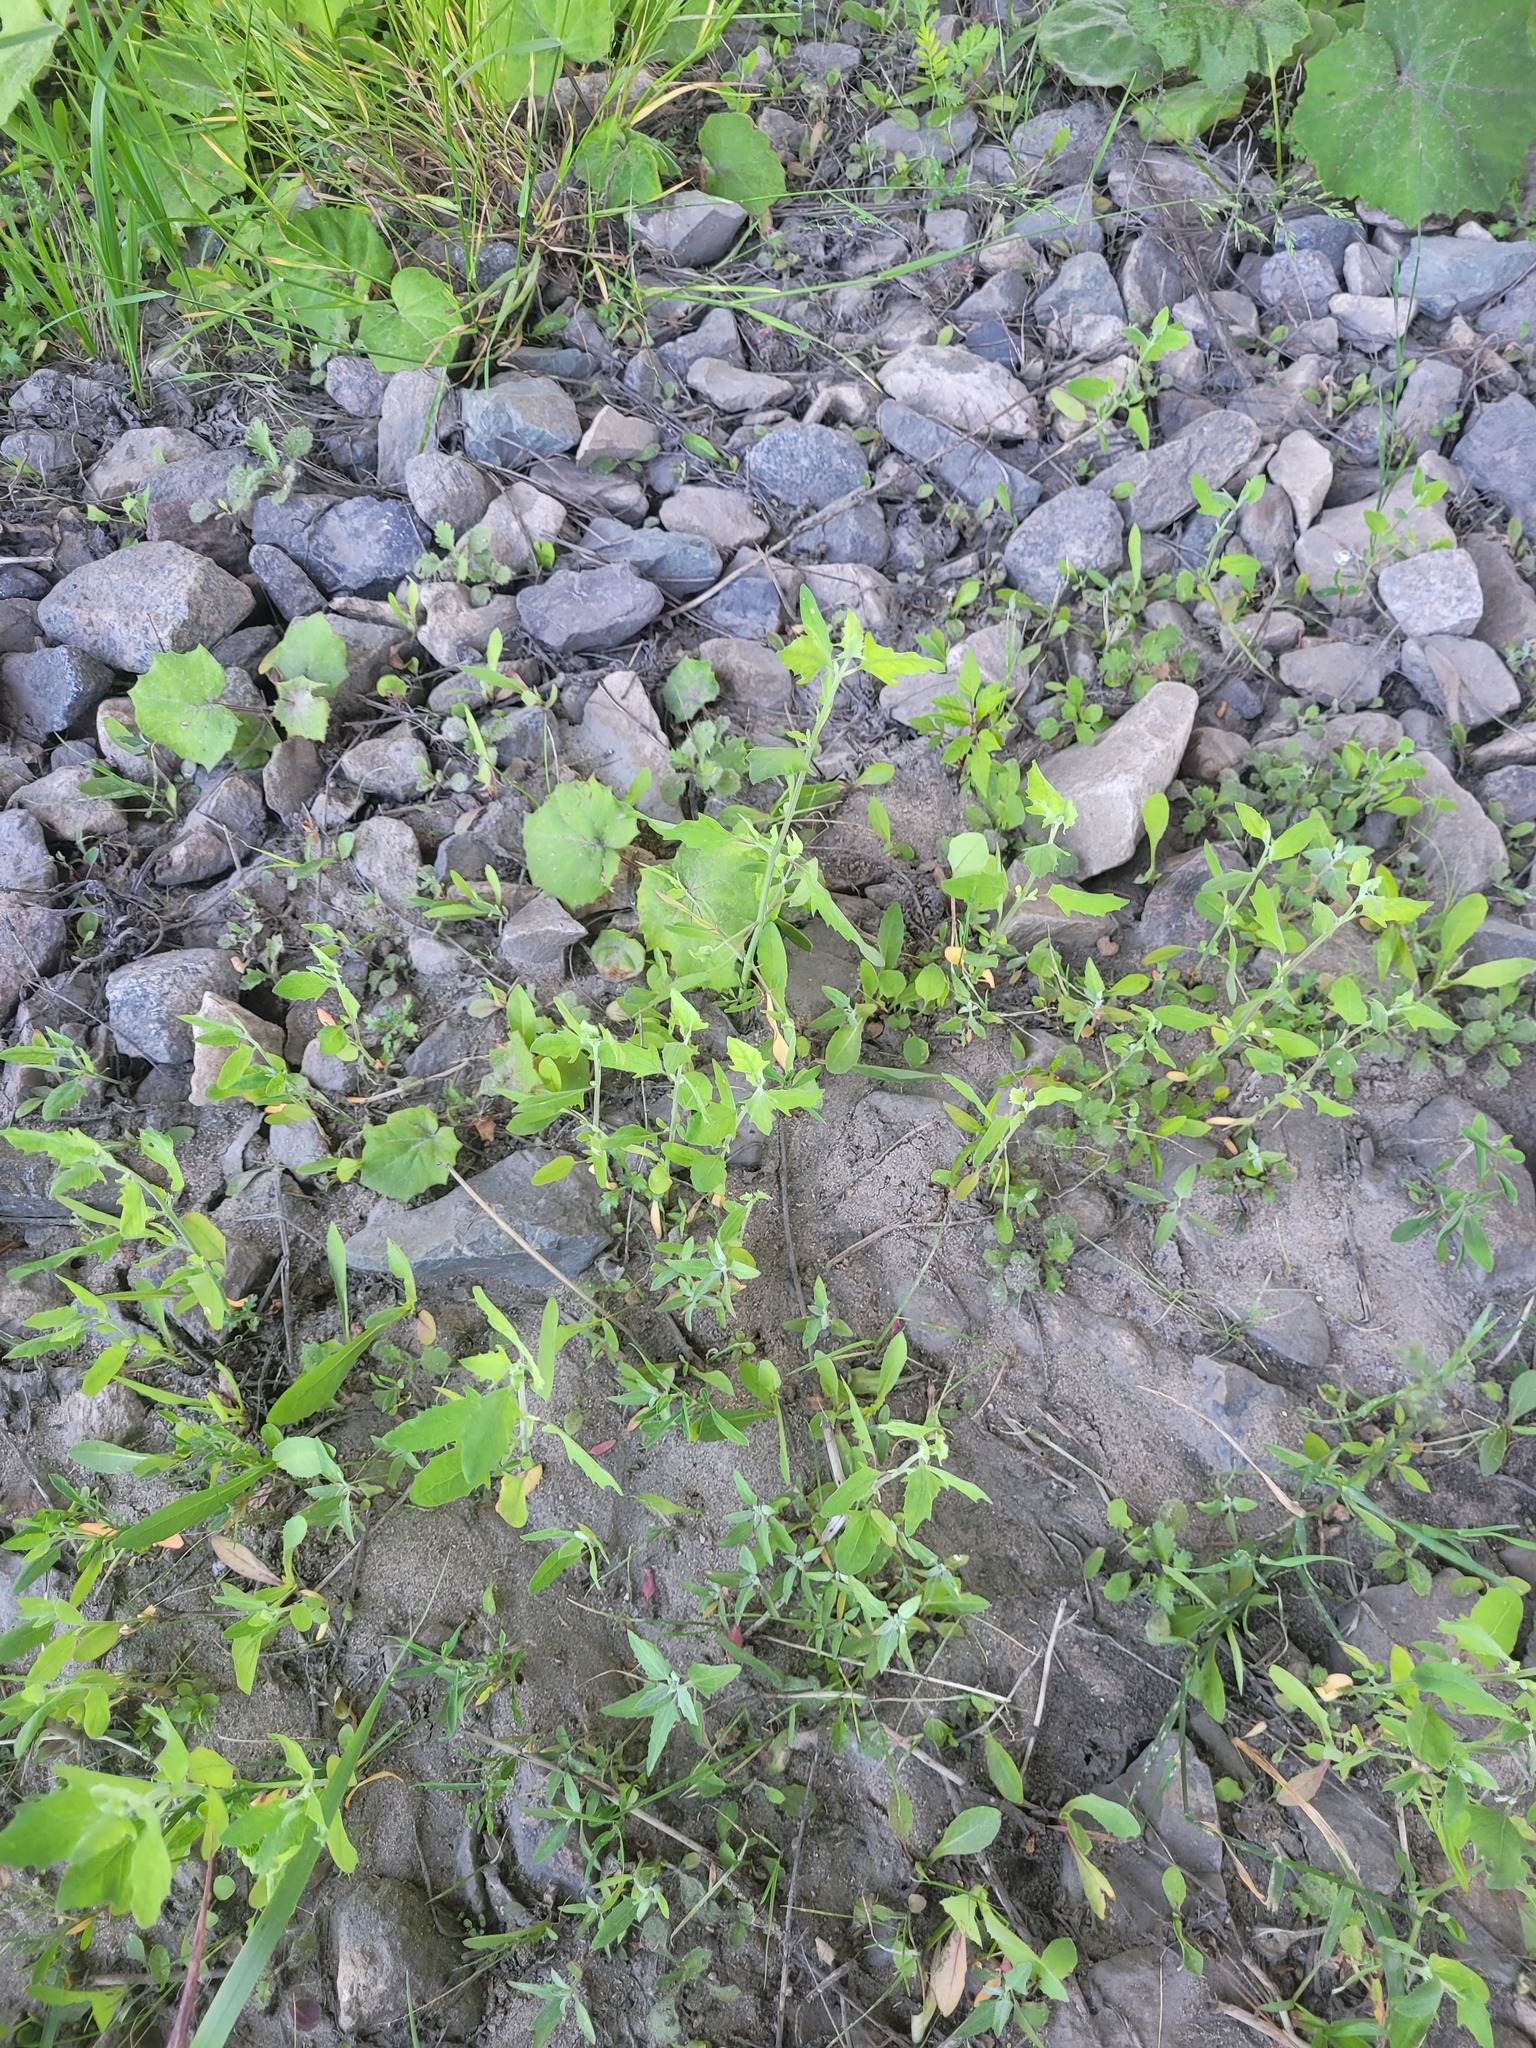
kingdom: Plantae
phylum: Tracheophyta
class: Magnoliopsida
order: Caryophyllales
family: Amaranthaceae
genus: Atriplex
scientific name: Atriplex patula
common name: Common orache
